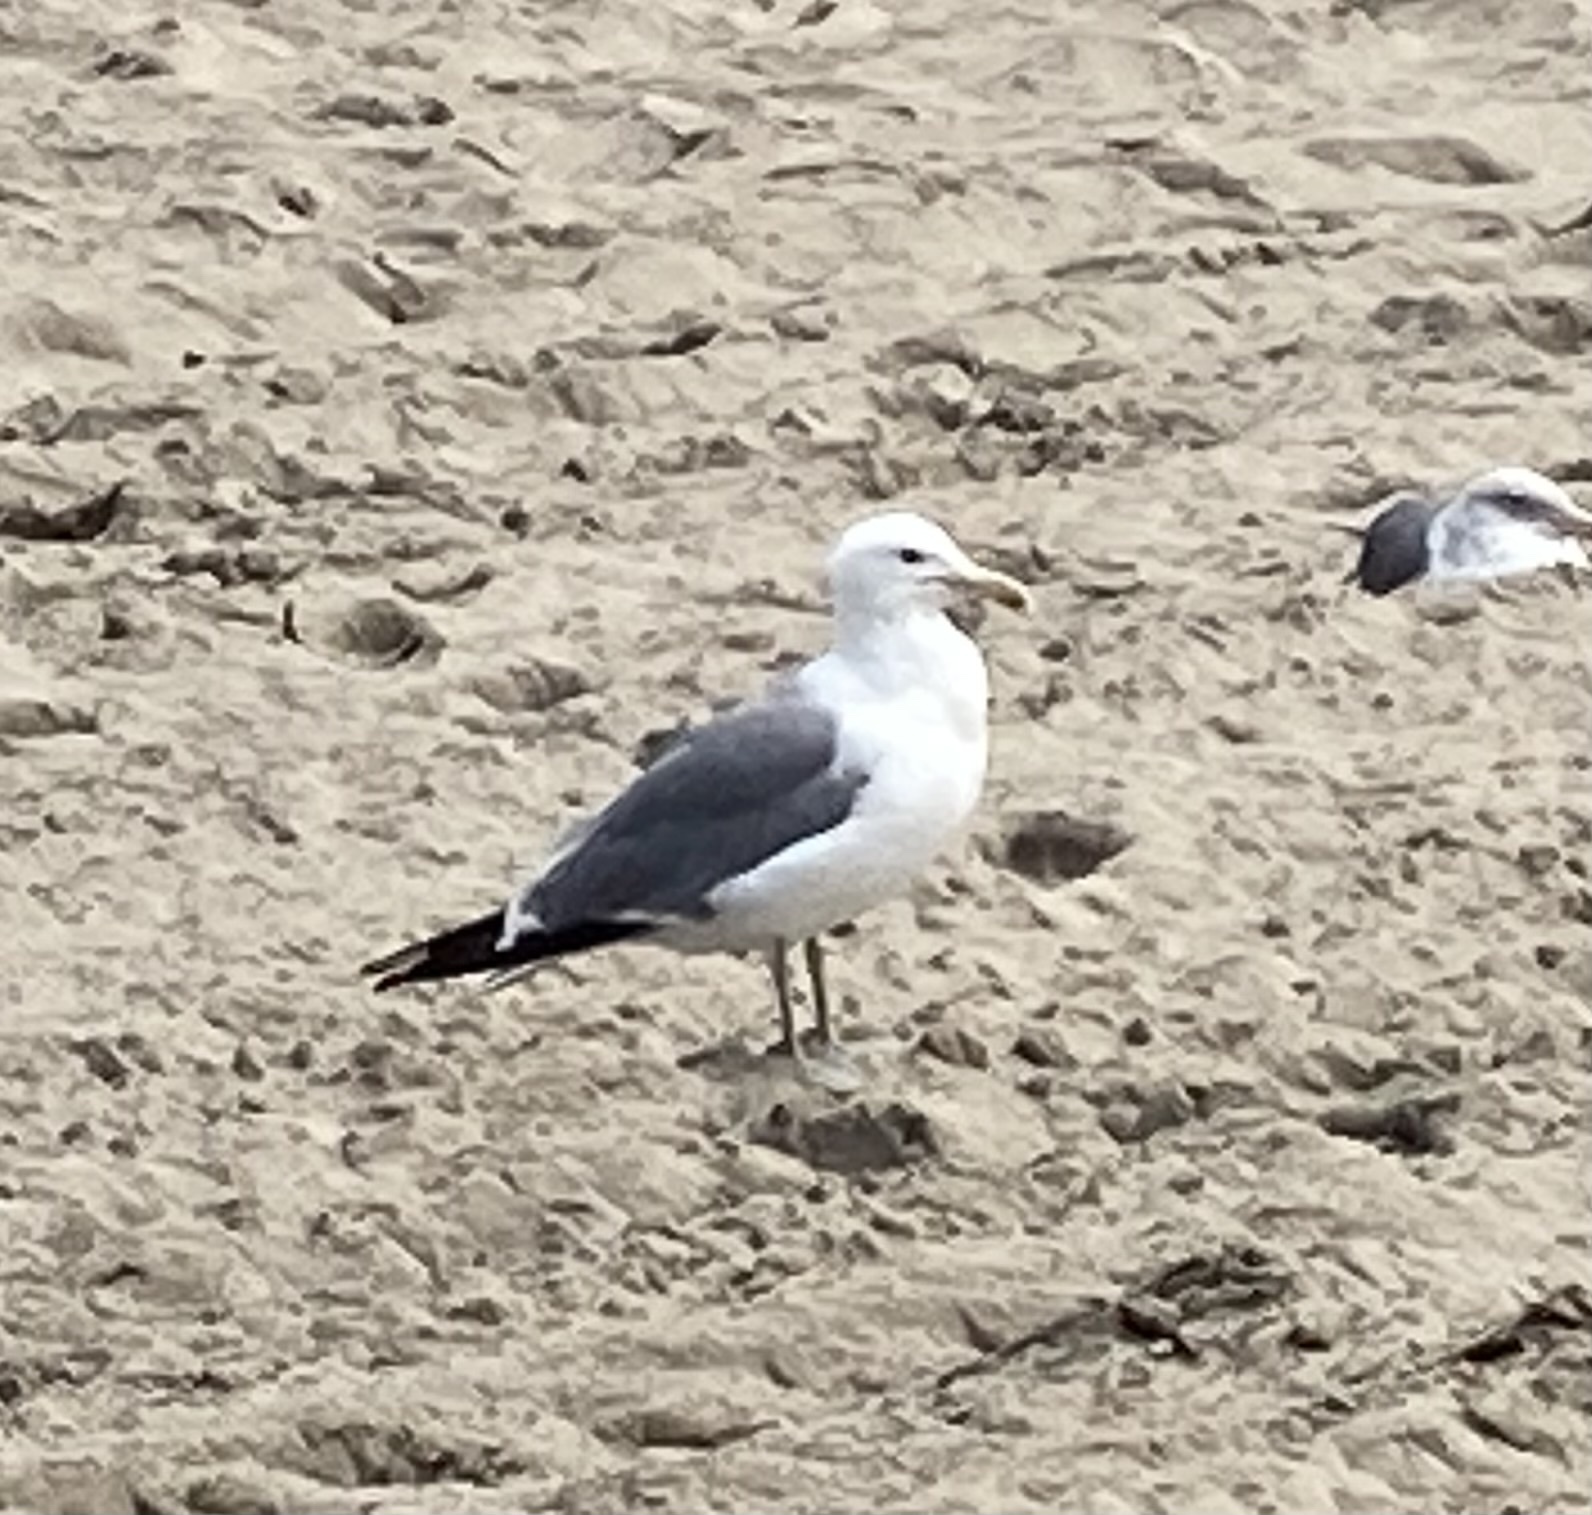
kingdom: Animalia
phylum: Chordata
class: Aves
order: Charadriiformes
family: Laridae
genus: Larus
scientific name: Larus californicus
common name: California gull
